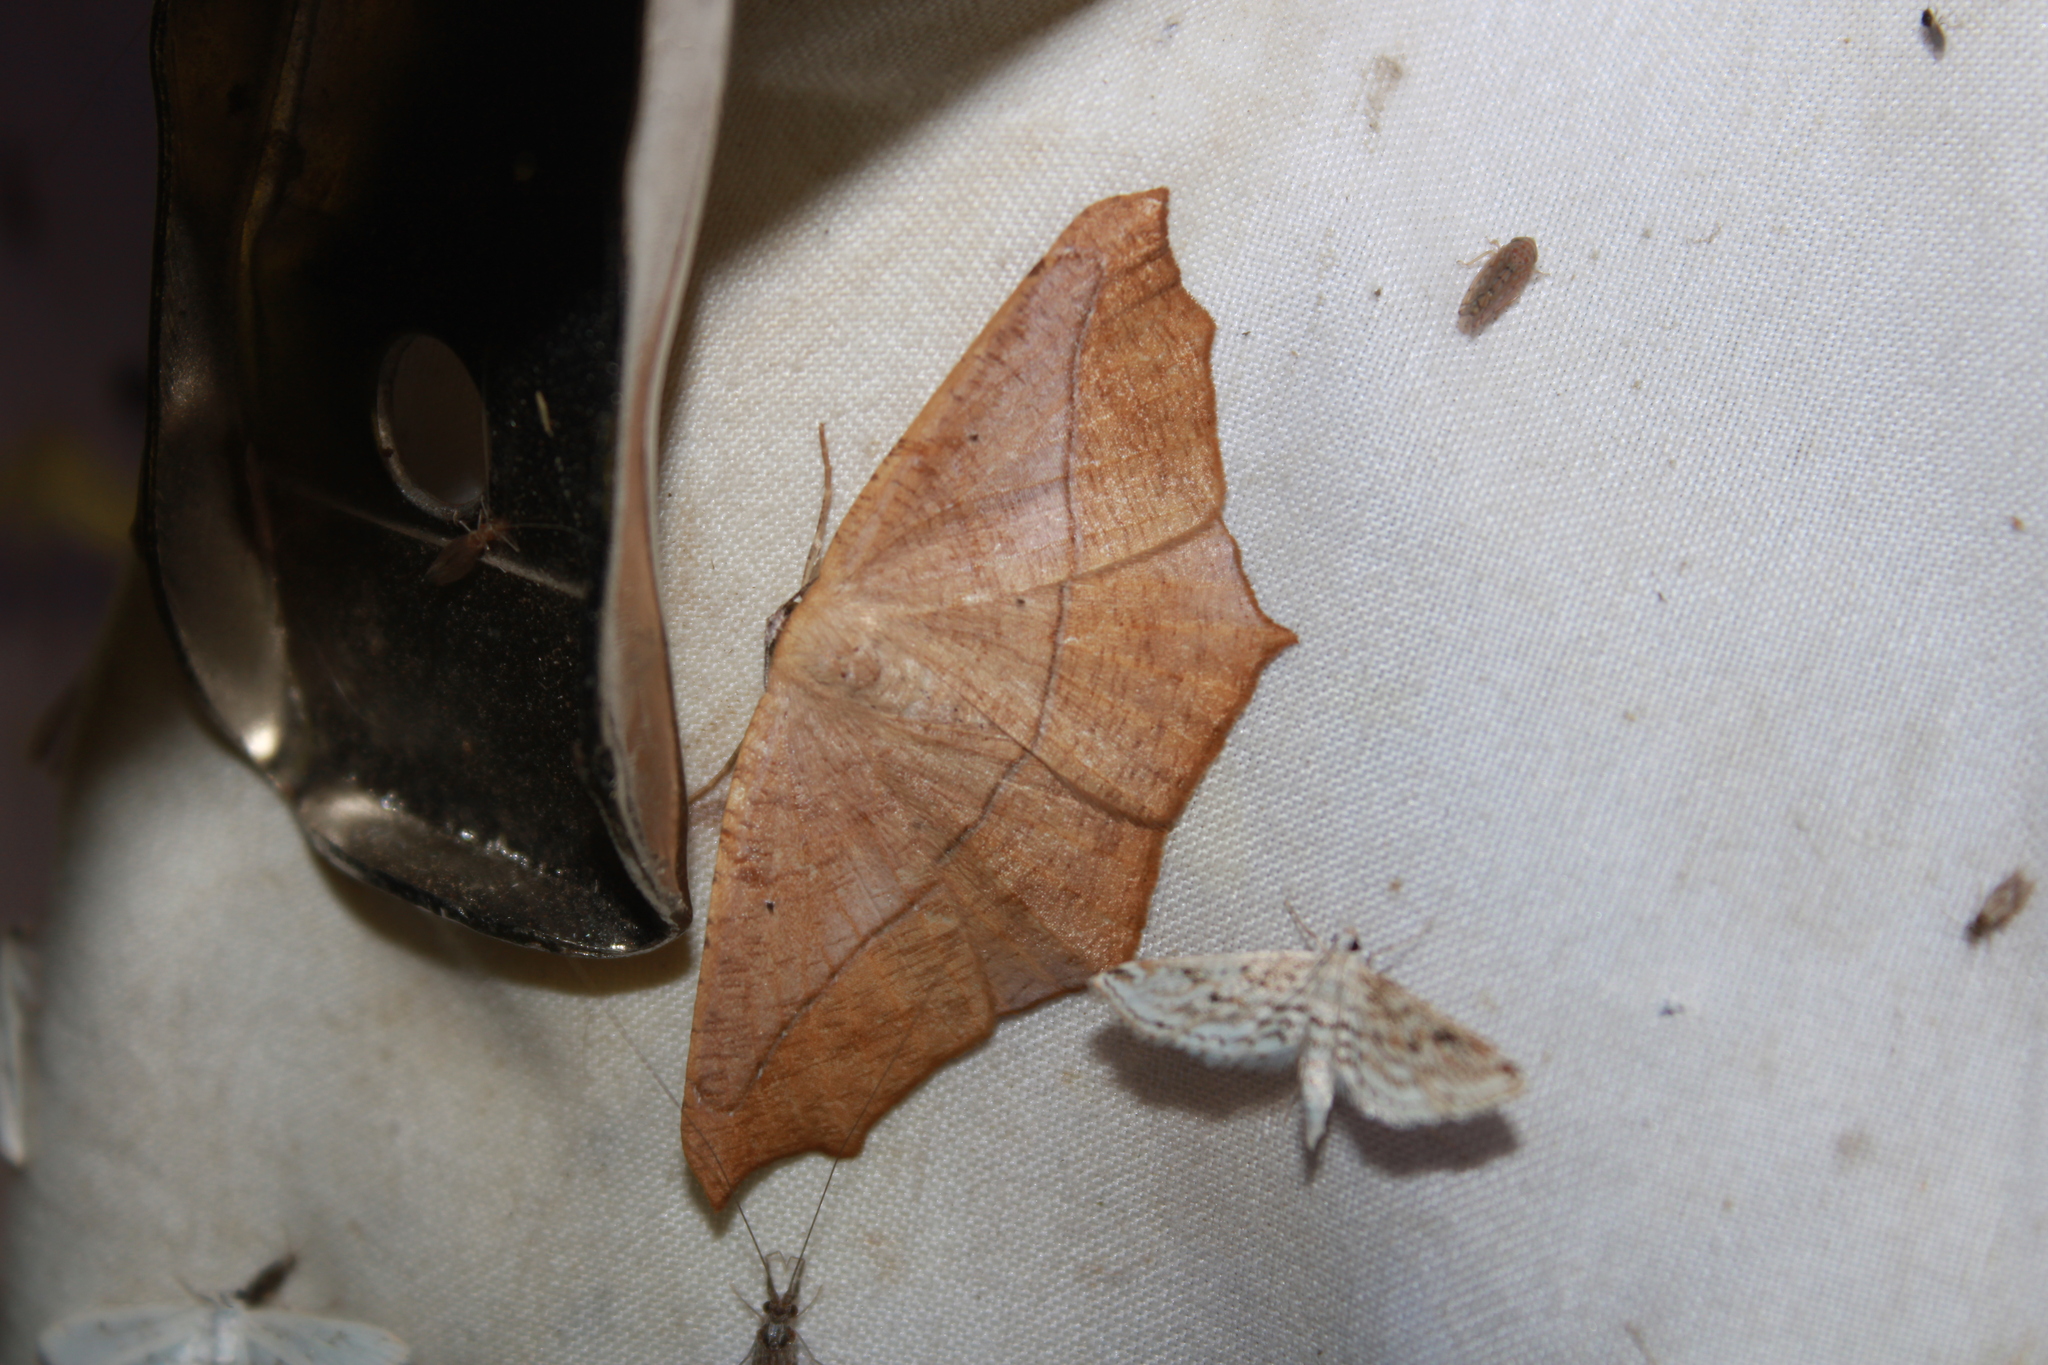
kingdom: Animalia
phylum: Arthropoda
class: Insecta
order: Lepidoptera
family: Geometridae
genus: Prochoerodes
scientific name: Prochoerodes lineola
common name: Large maple spanworm
